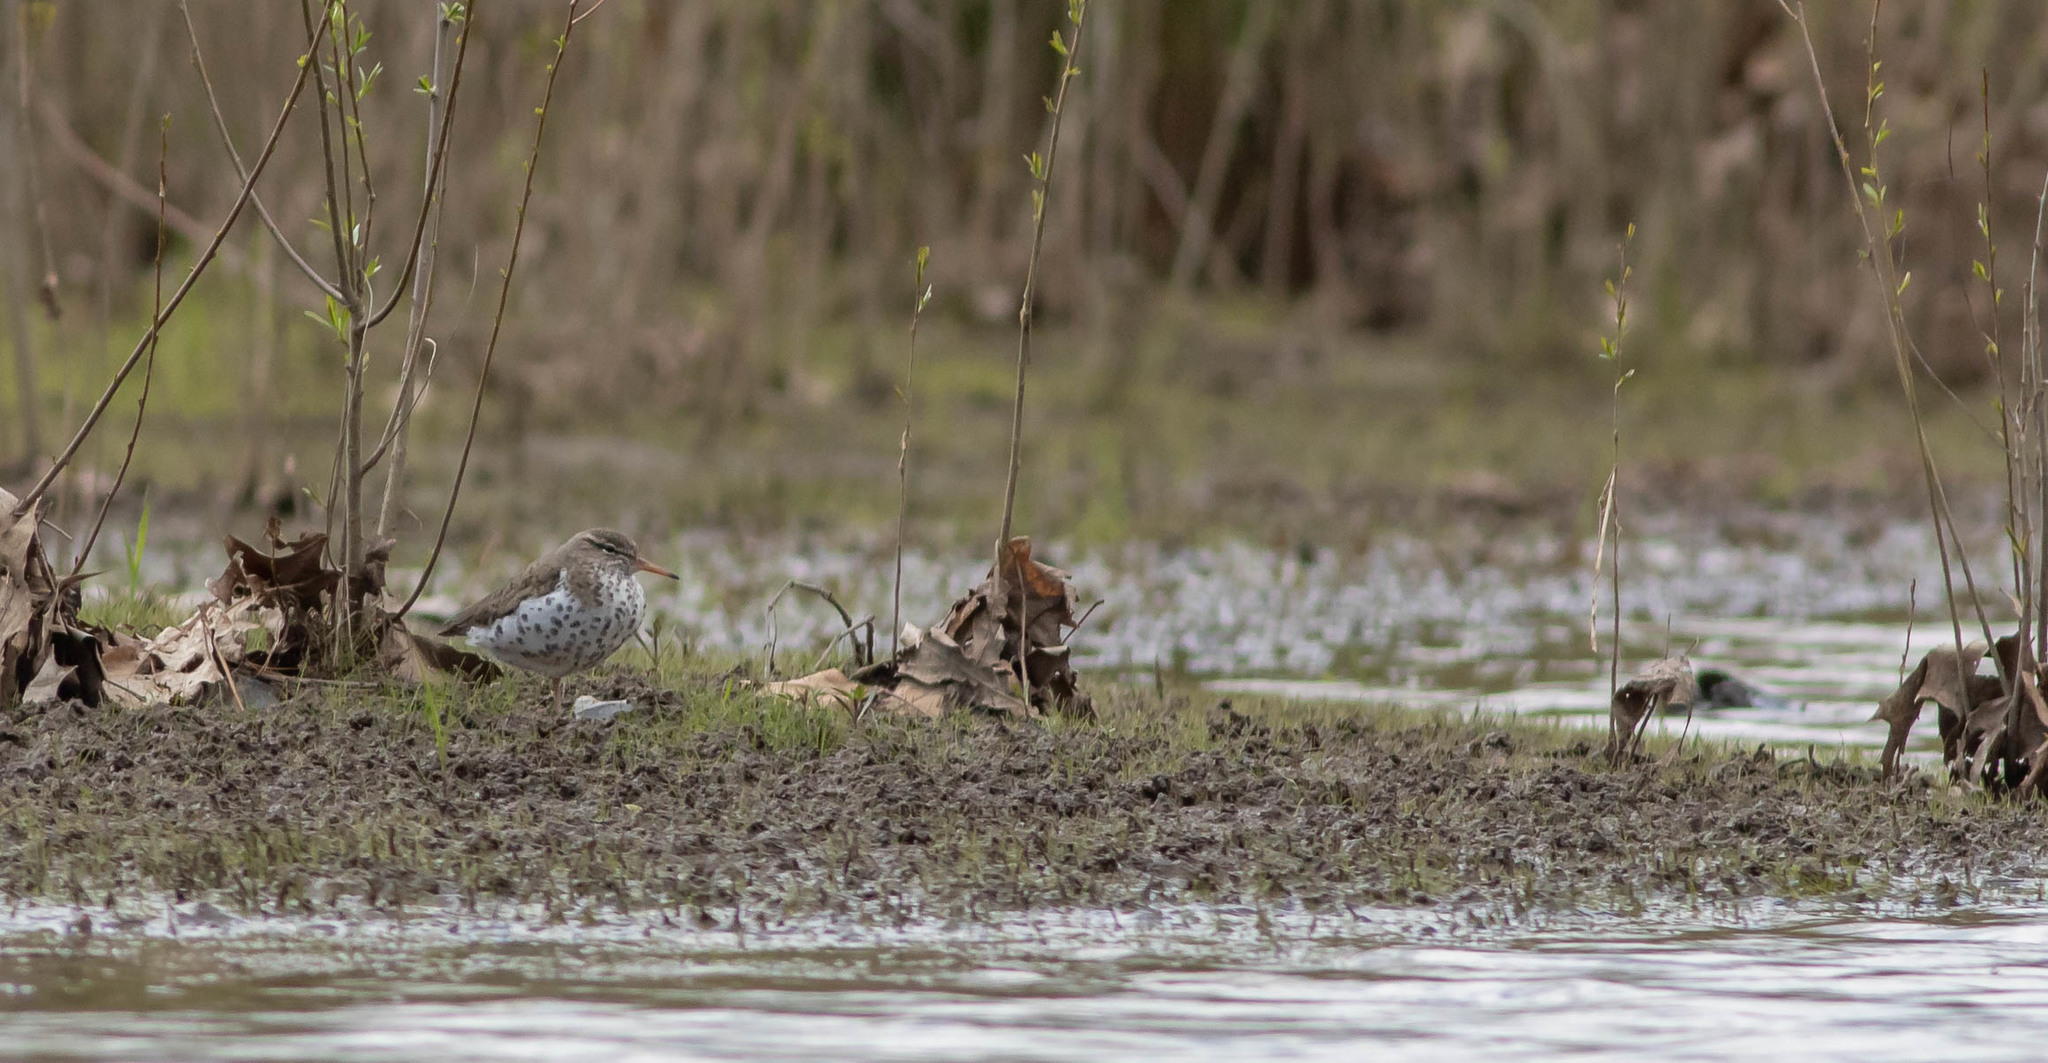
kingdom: Animalia
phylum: Chordata
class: Aves
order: Charadriiformes
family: Scolopacidae
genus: Actitis
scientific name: Actitis macularius
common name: Spotted sandpiper
